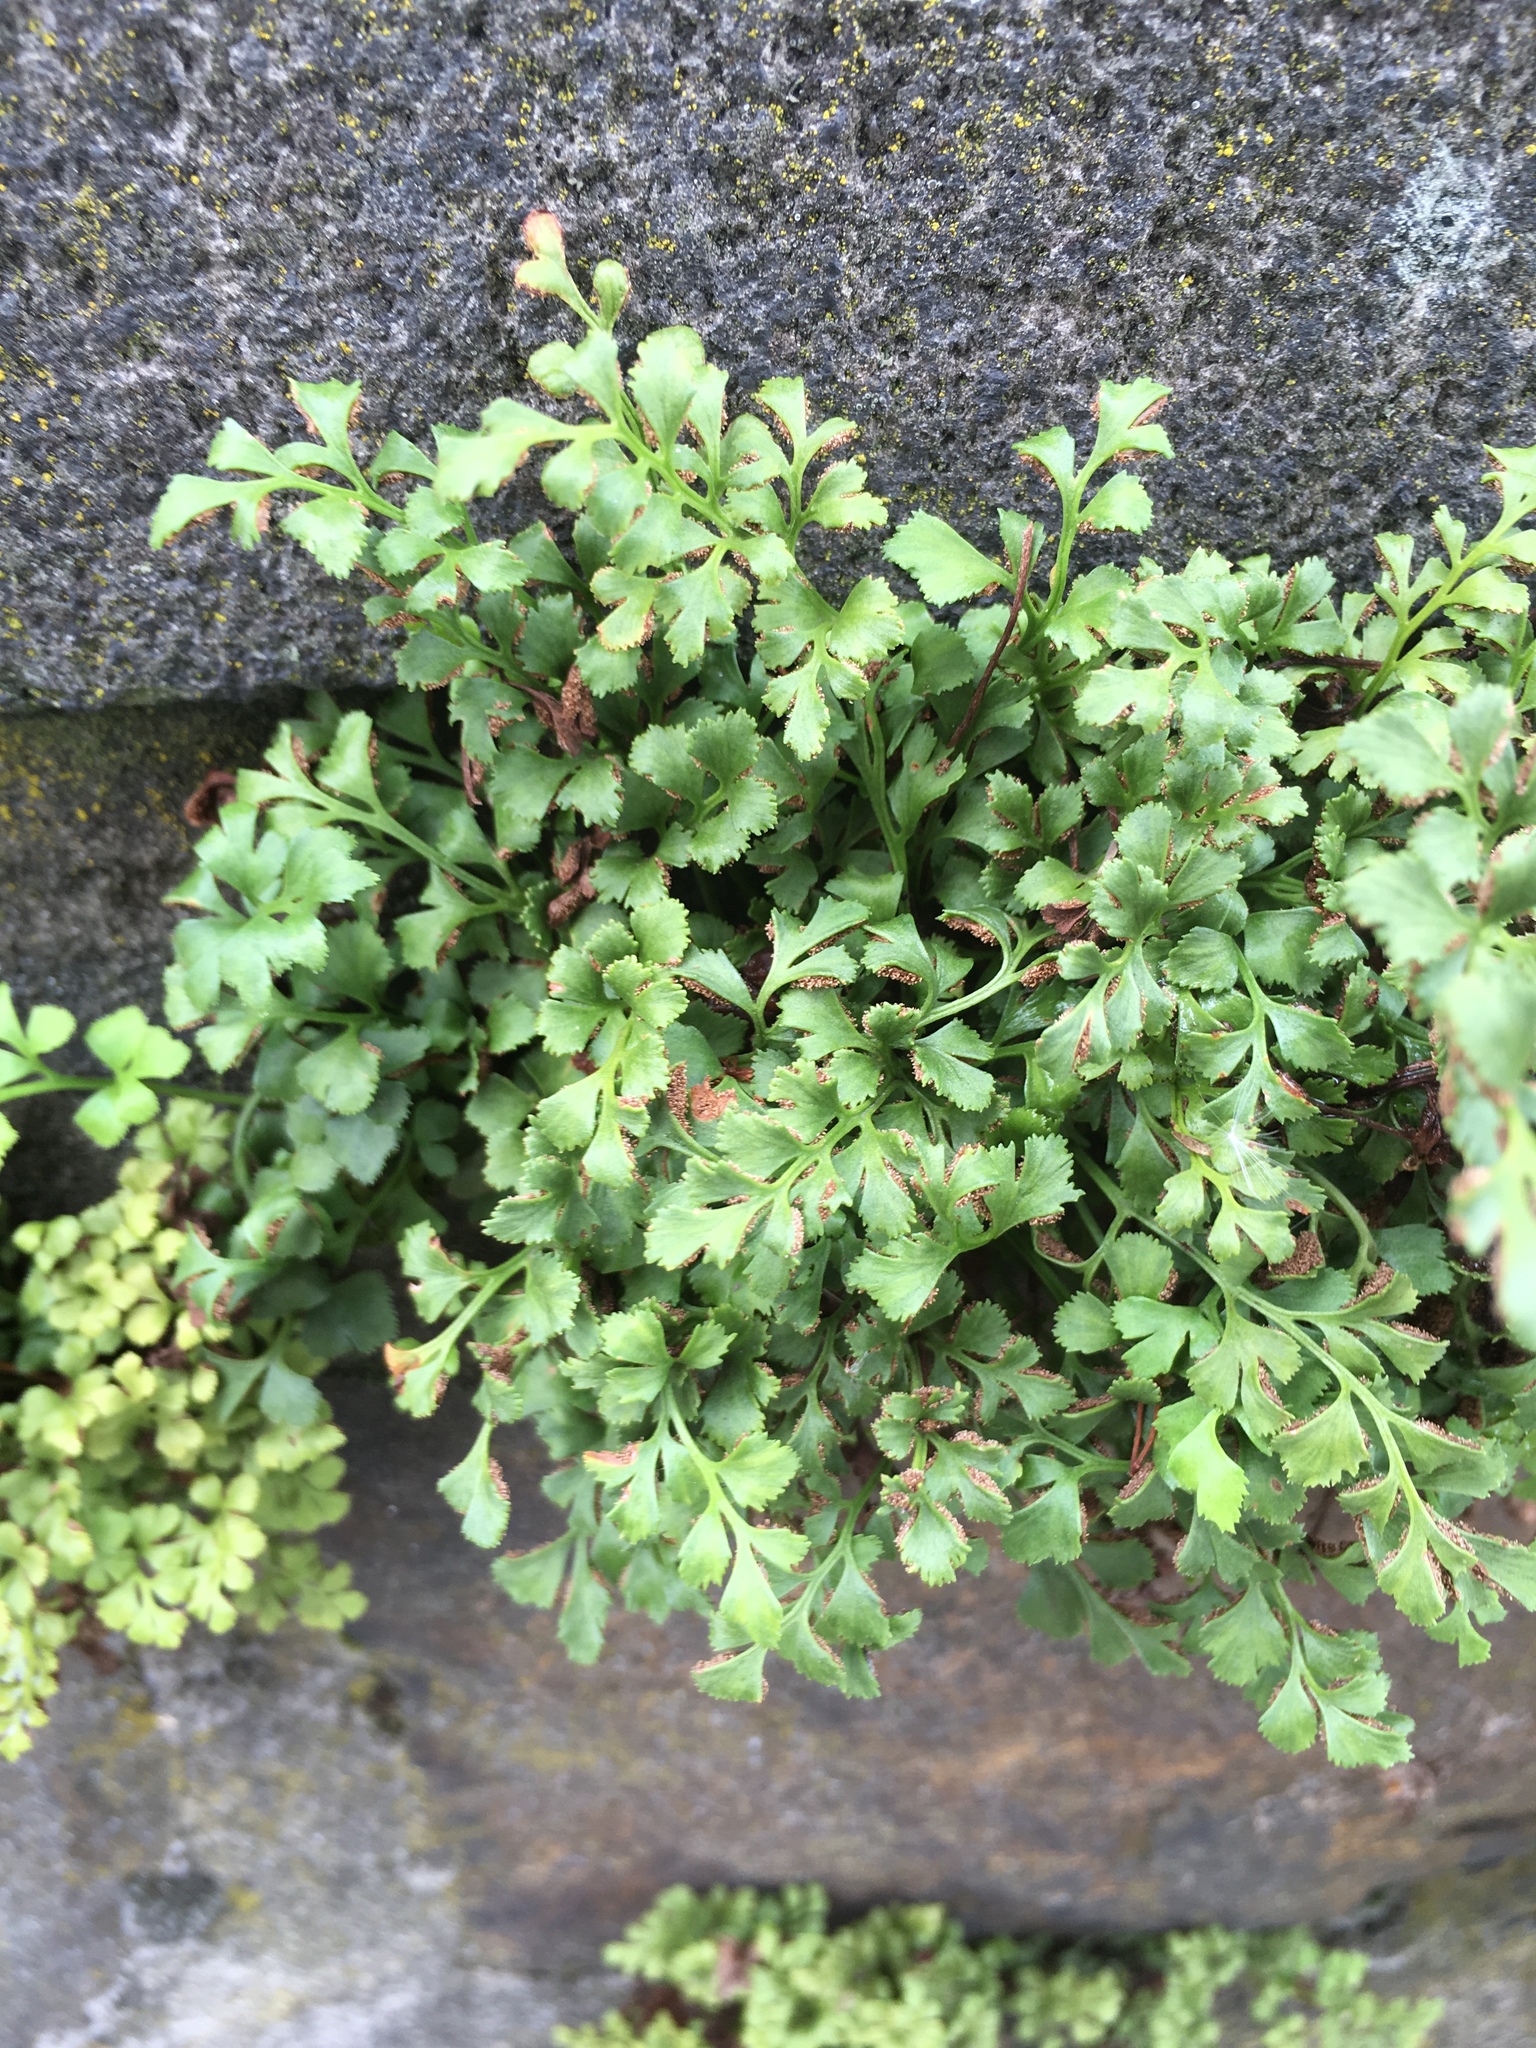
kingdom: Plantae
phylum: Tracheophyta
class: Polypodiopsida
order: Polypodiales
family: Aspleniaceae
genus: Asplenium
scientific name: Asplenium ruta-muraria
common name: Wall-rue
